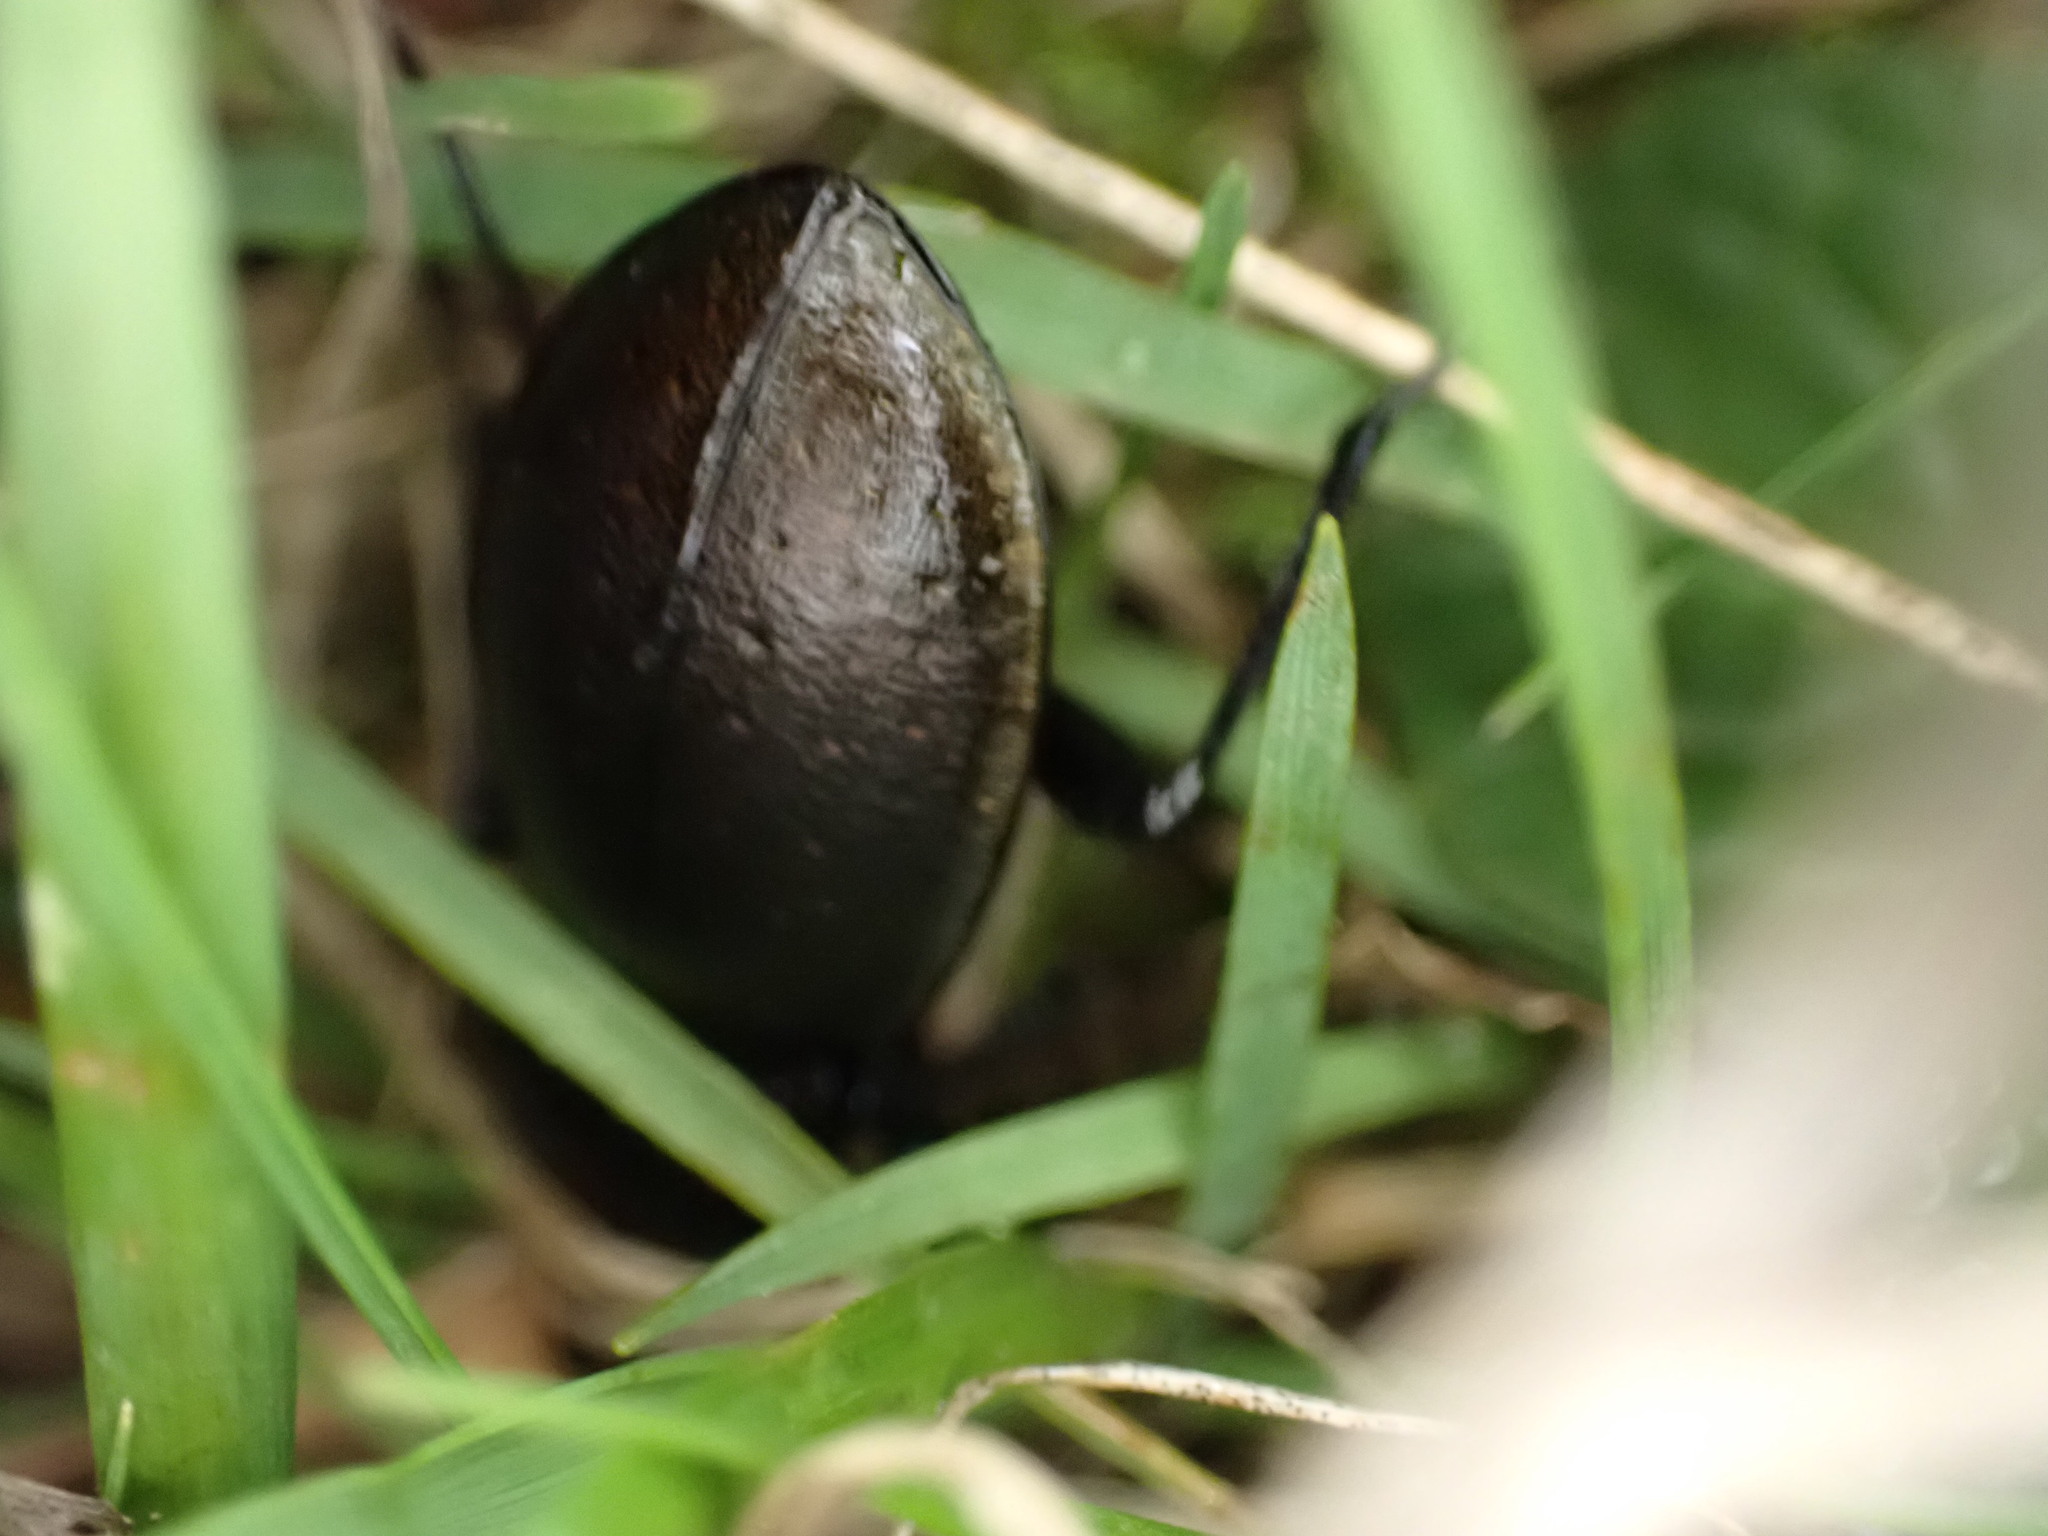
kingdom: Animalia
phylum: Arthropoda
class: Insecta
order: Coleoptera
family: Carabidae
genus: Carabus
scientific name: Carabus nemoralis
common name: European ground beetle
